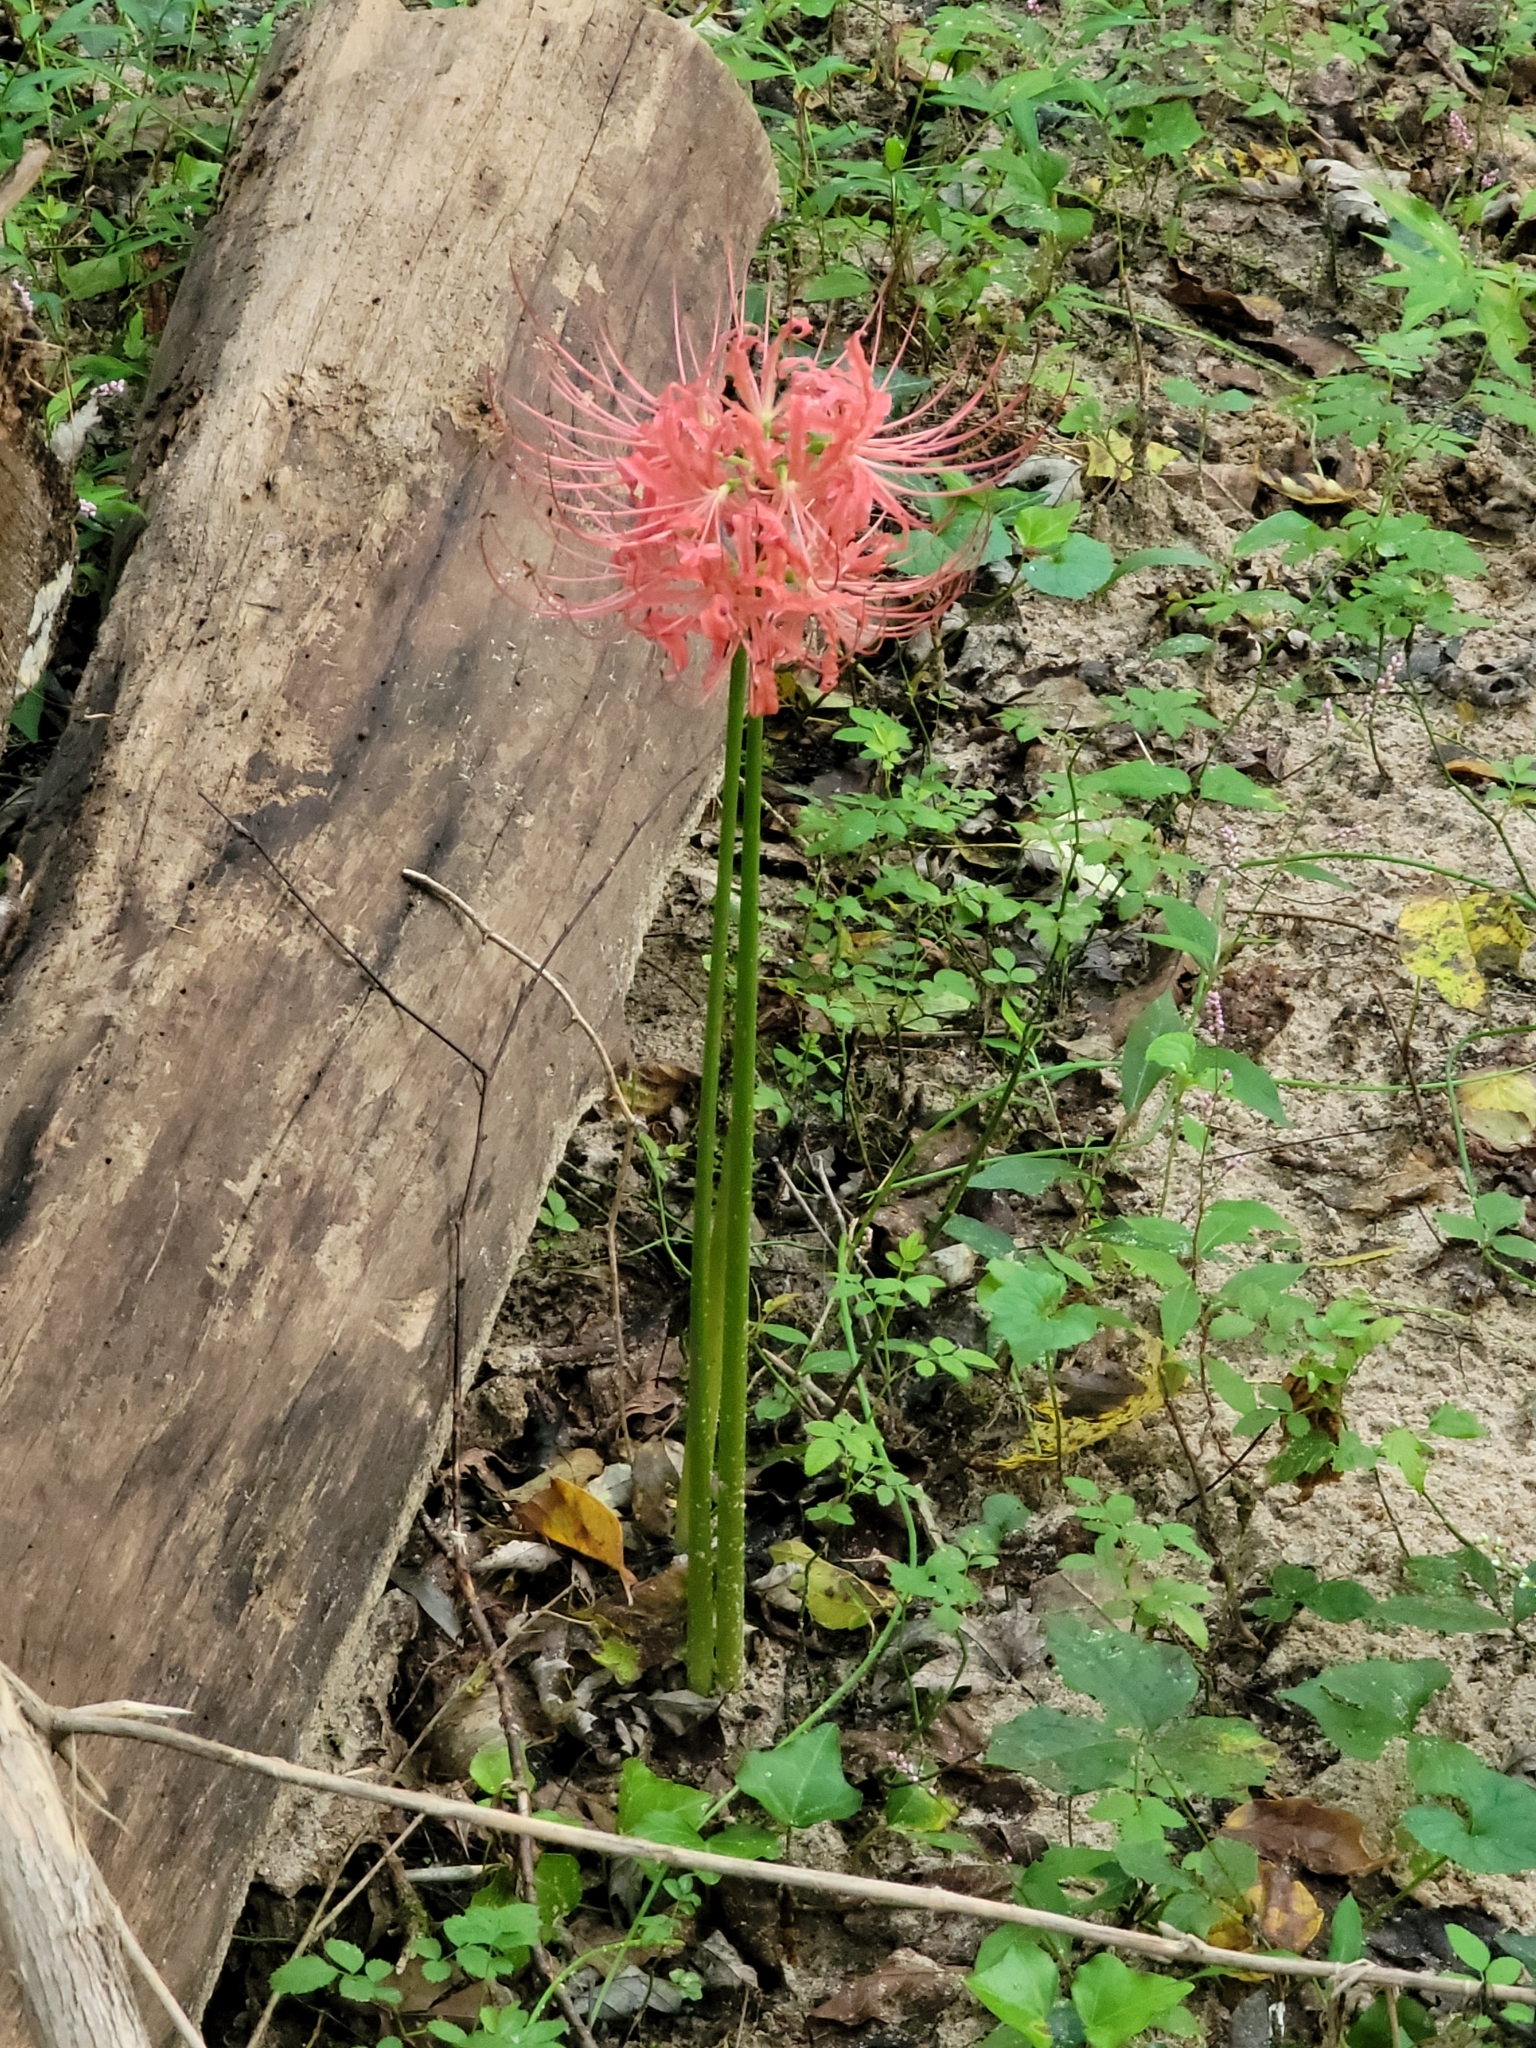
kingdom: Plantae
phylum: Tracheophyta
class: Liliopsida
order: Asparagales
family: Amaryllidaceae
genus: Lycoris
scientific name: Lycoris radiata
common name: Red spider lily
